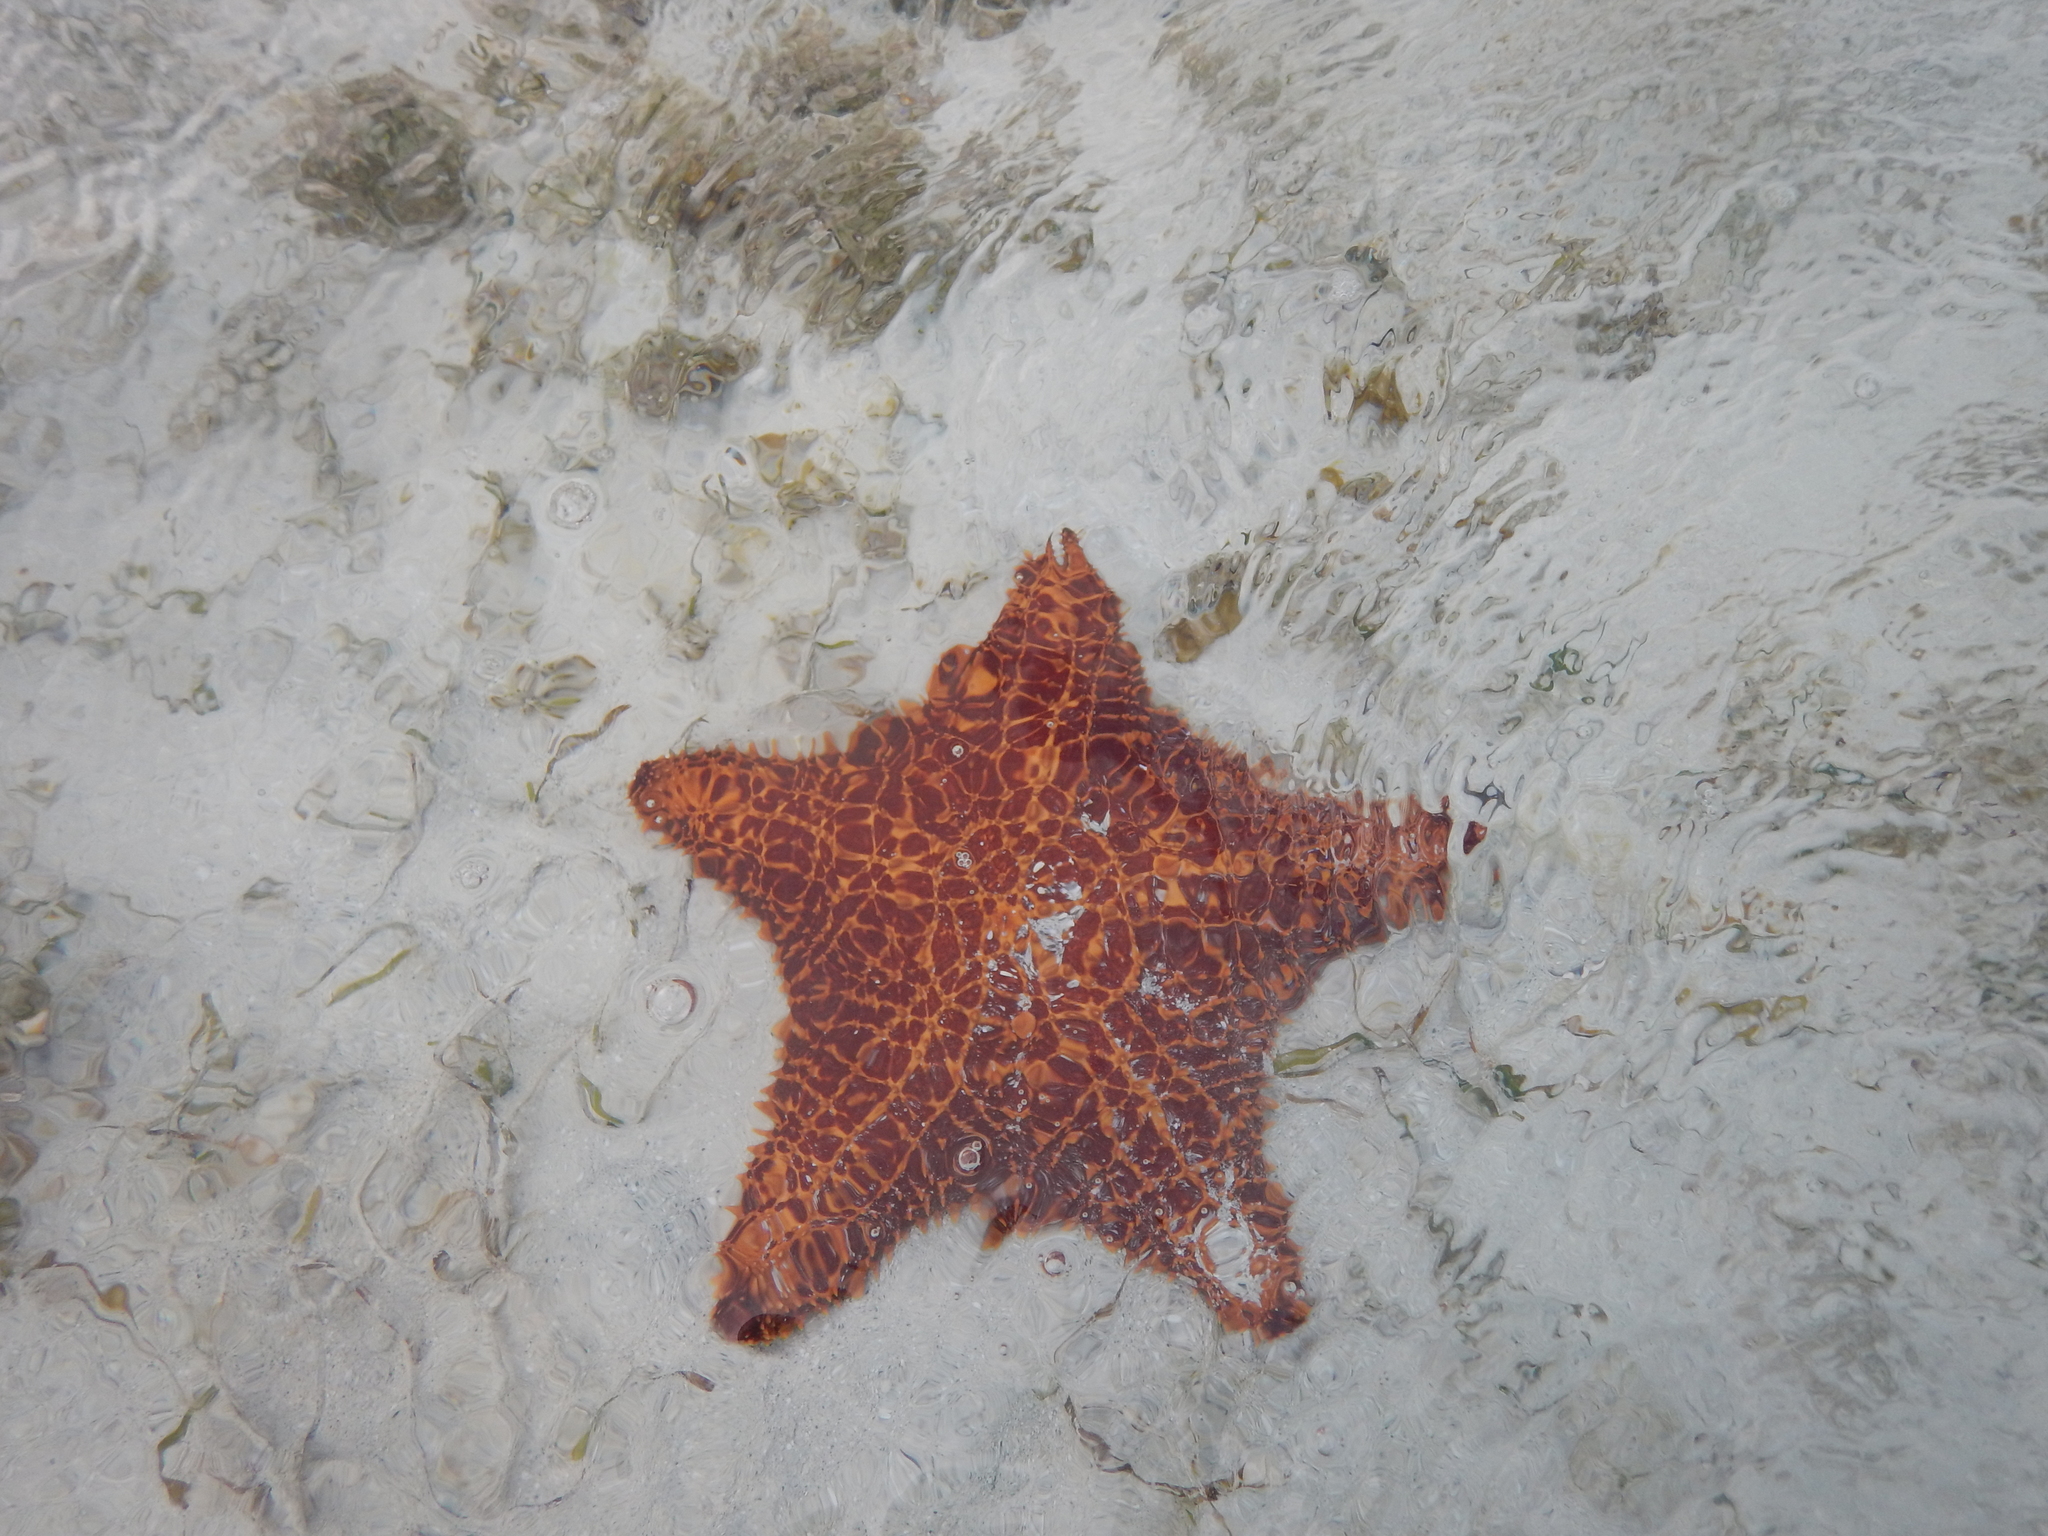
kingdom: Animalia
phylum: Echinodermata
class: Asteroidea
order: Valvatida
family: Oreasteridae
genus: Oreaster
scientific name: Oreaster reticulatus
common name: Cushion sea star
